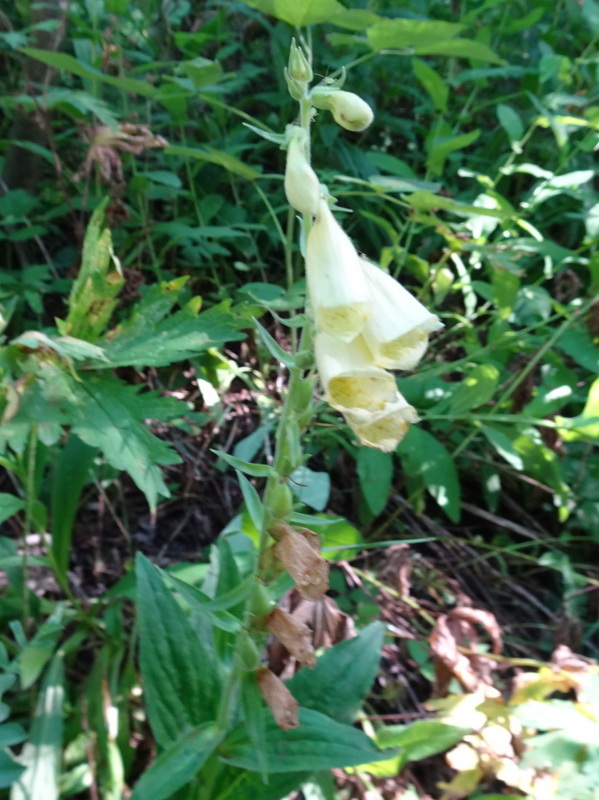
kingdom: Plantae
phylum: Tracheophyta
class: Magnoliopsida
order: Lamiales
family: Plantaginaceae
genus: Digitalis
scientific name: Digitalis grandiflora
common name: Yellow foxglove
